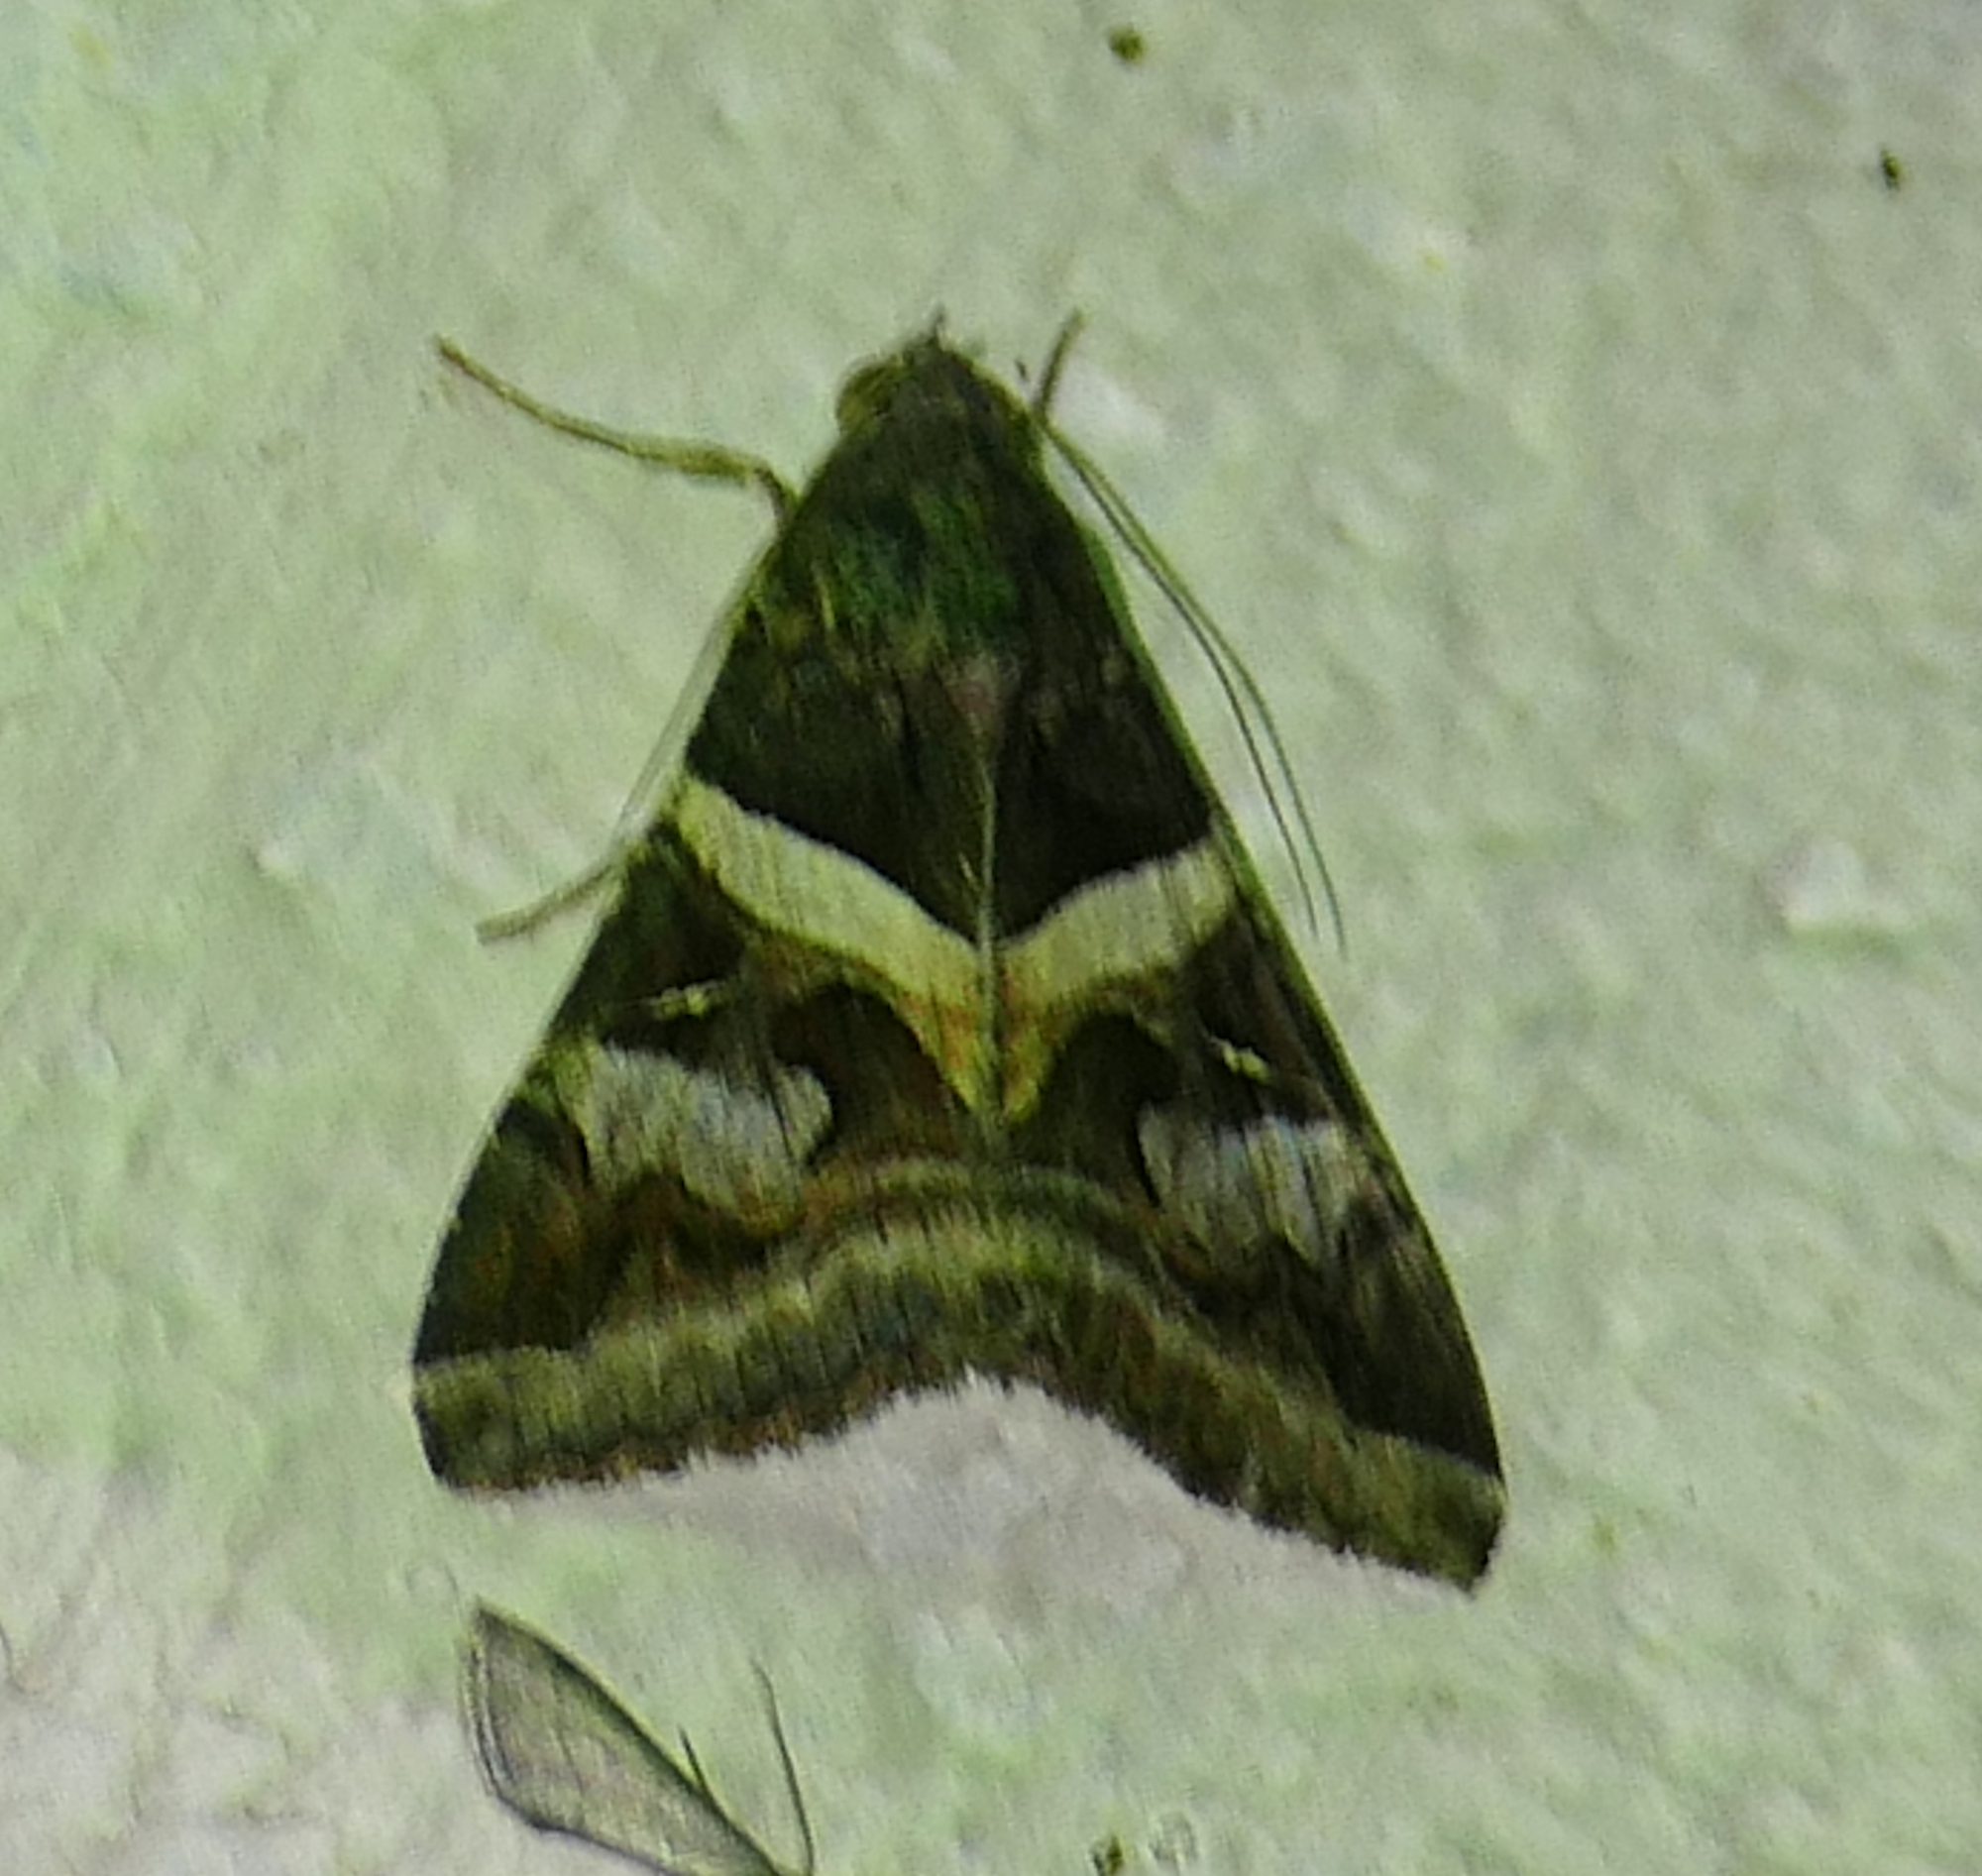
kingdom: Animalia
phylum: Arthropoda
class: Insecta
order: Lepidoptera
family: Erebidae
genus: Melipotis
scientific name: Melipotis indomita
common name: Moth
